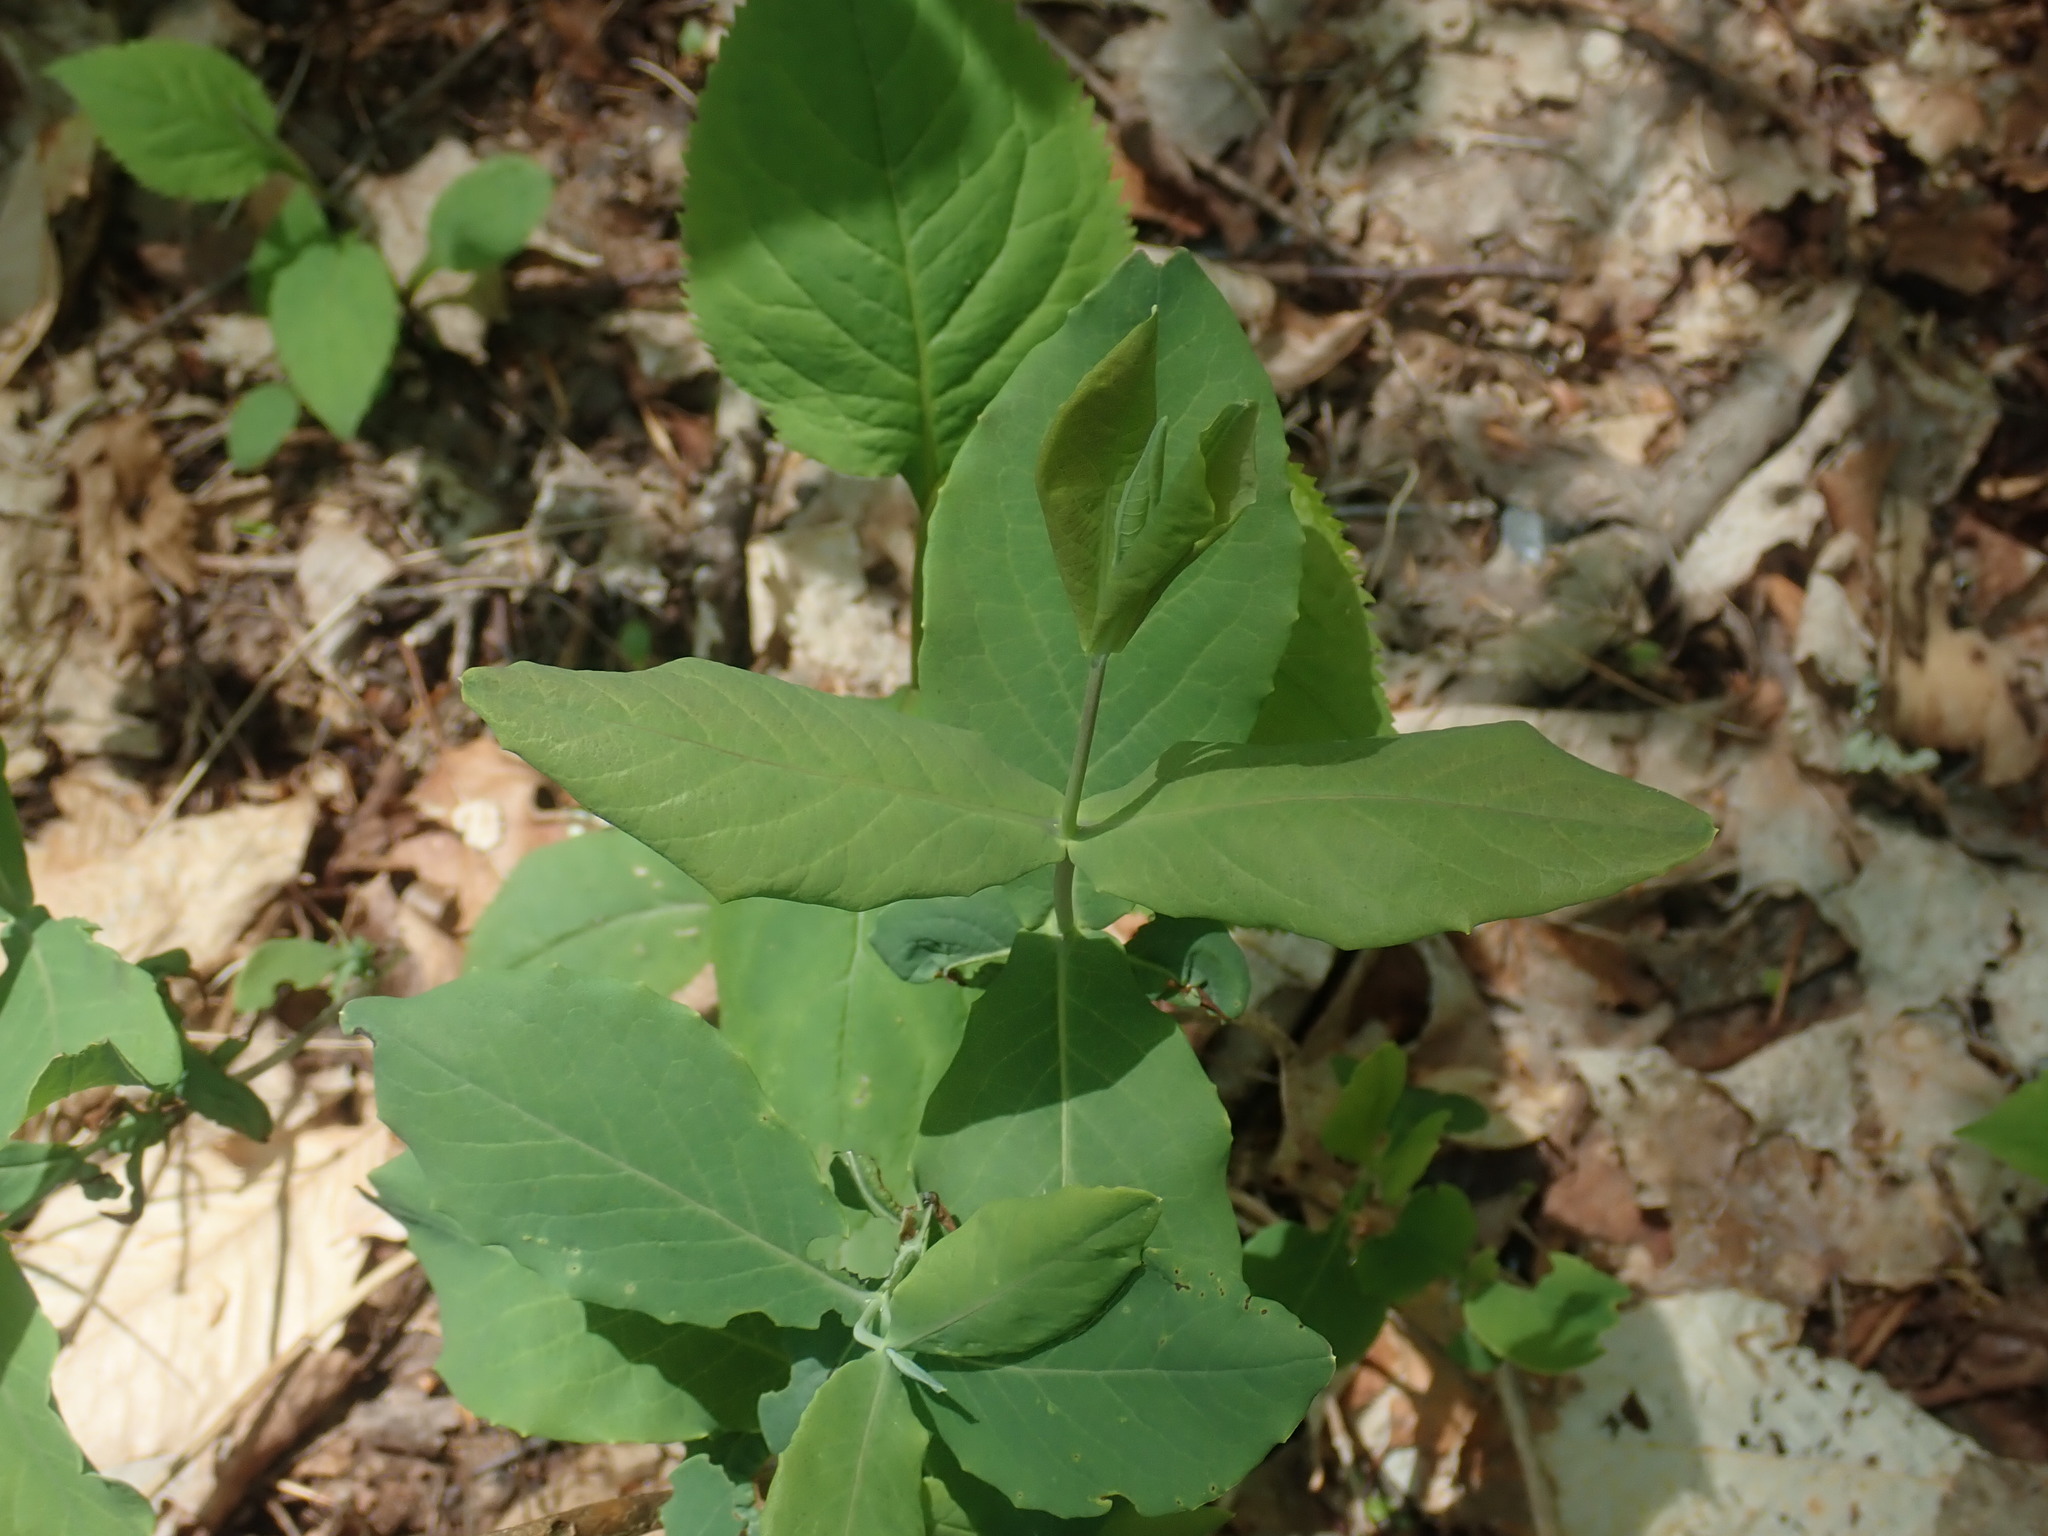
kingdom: Plantae
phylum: Tracheophyta
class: Magnoliopsida
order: Dipsacales
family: Caprifoliaceae
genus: Lonicera
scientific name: Lonicera dioica
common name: Limber honeysuckle
